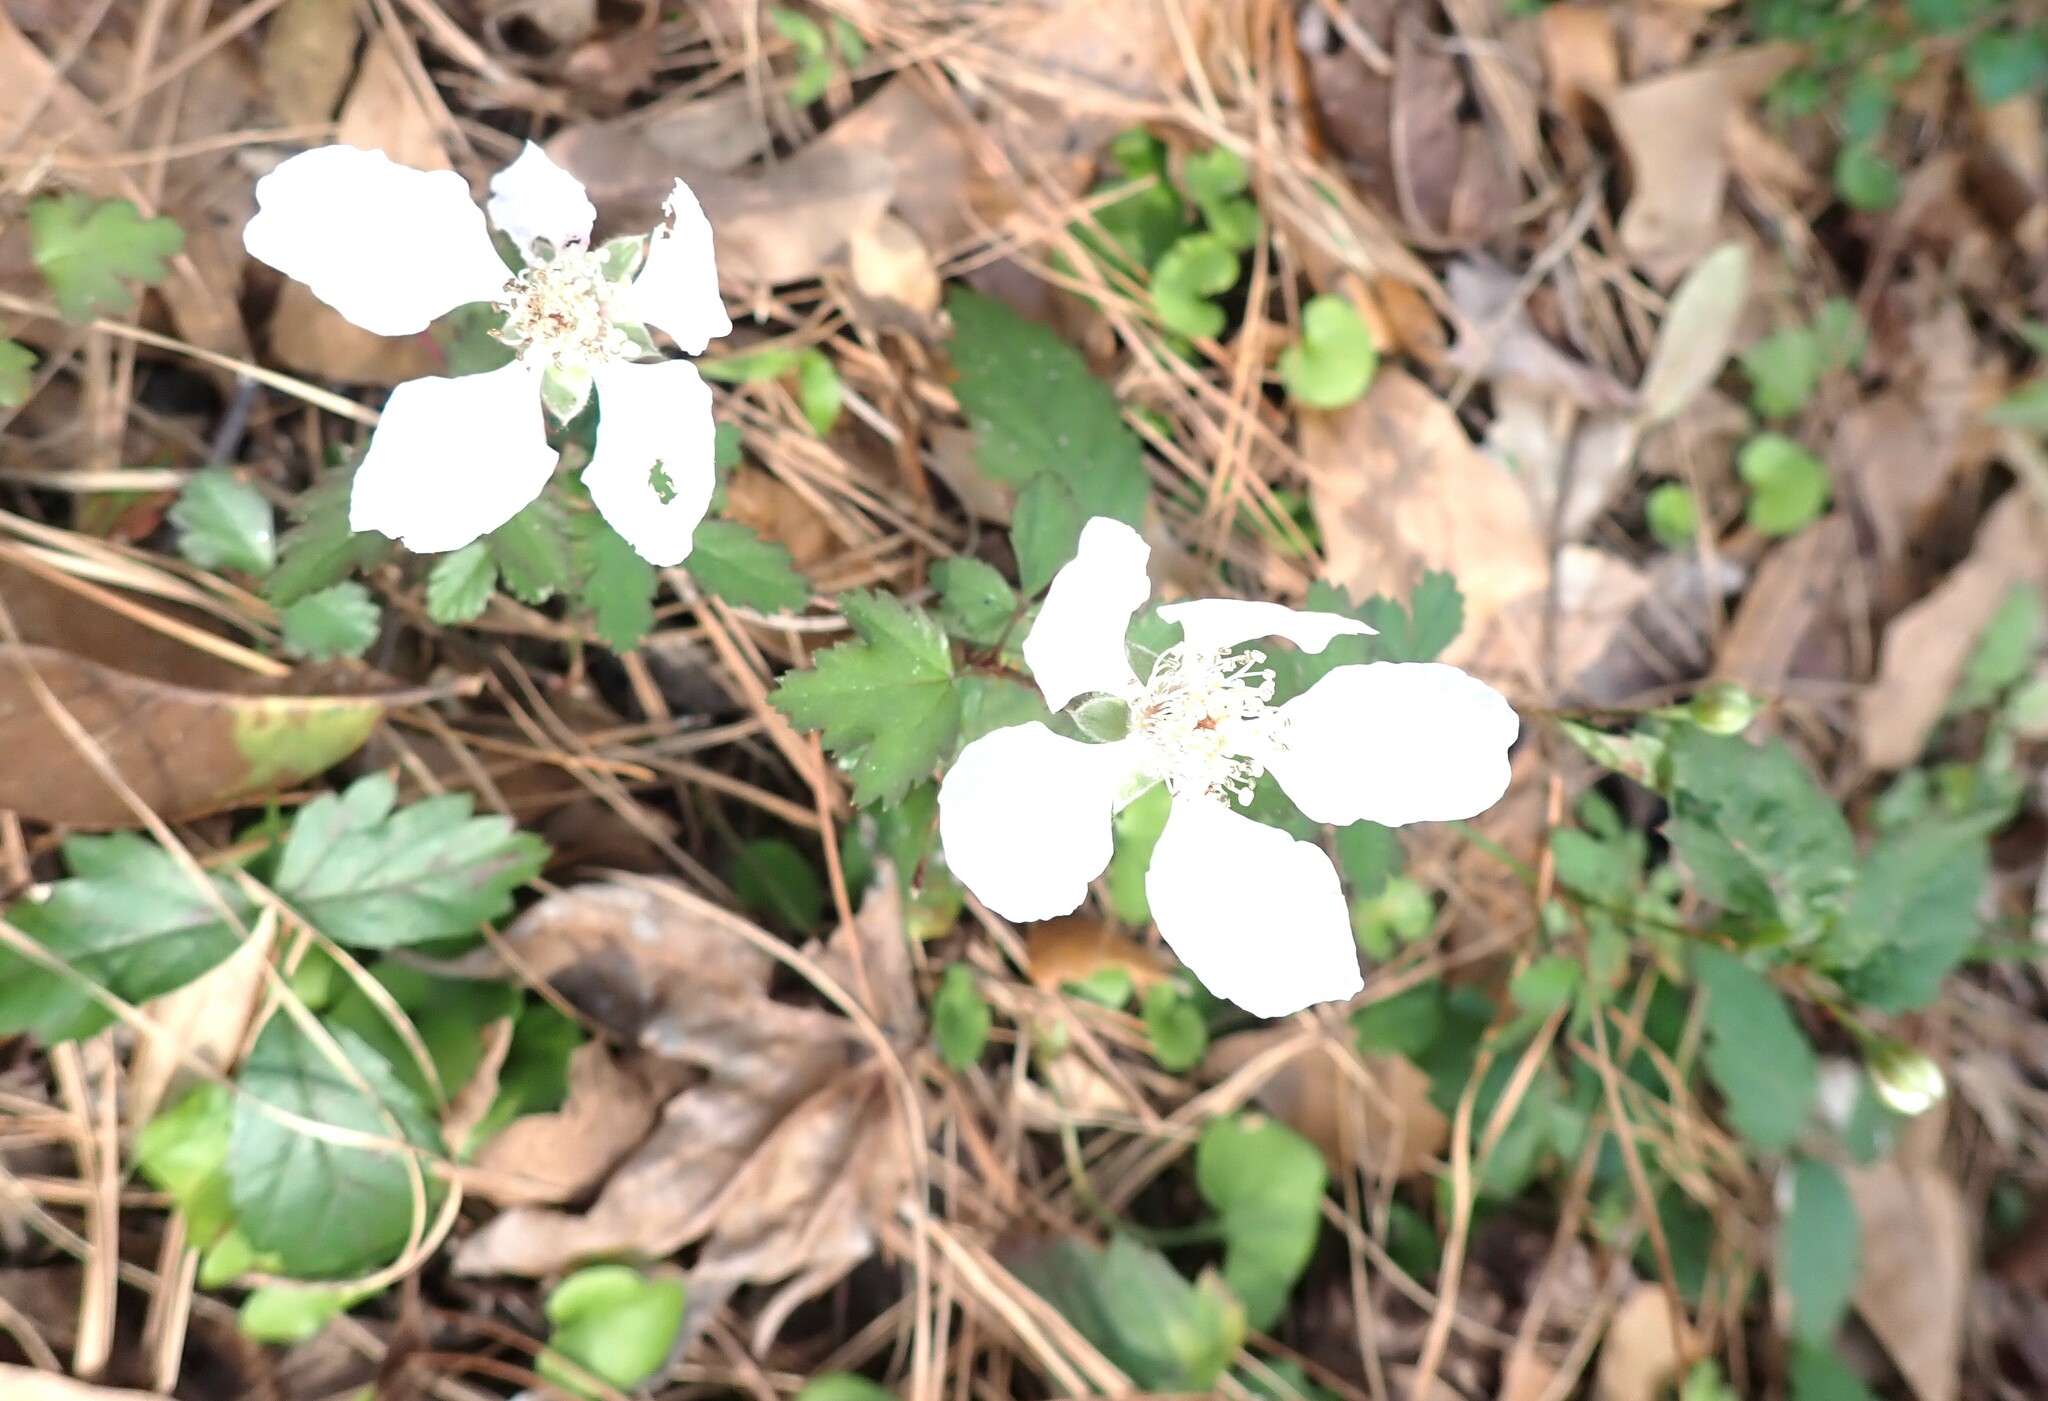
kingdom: Plantae
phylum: Tracheophyta
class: Magnoliopsida
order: Rosales
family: Rosaceae
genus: Rubus
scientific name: Rubus trivialis
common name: Southern dewberry
